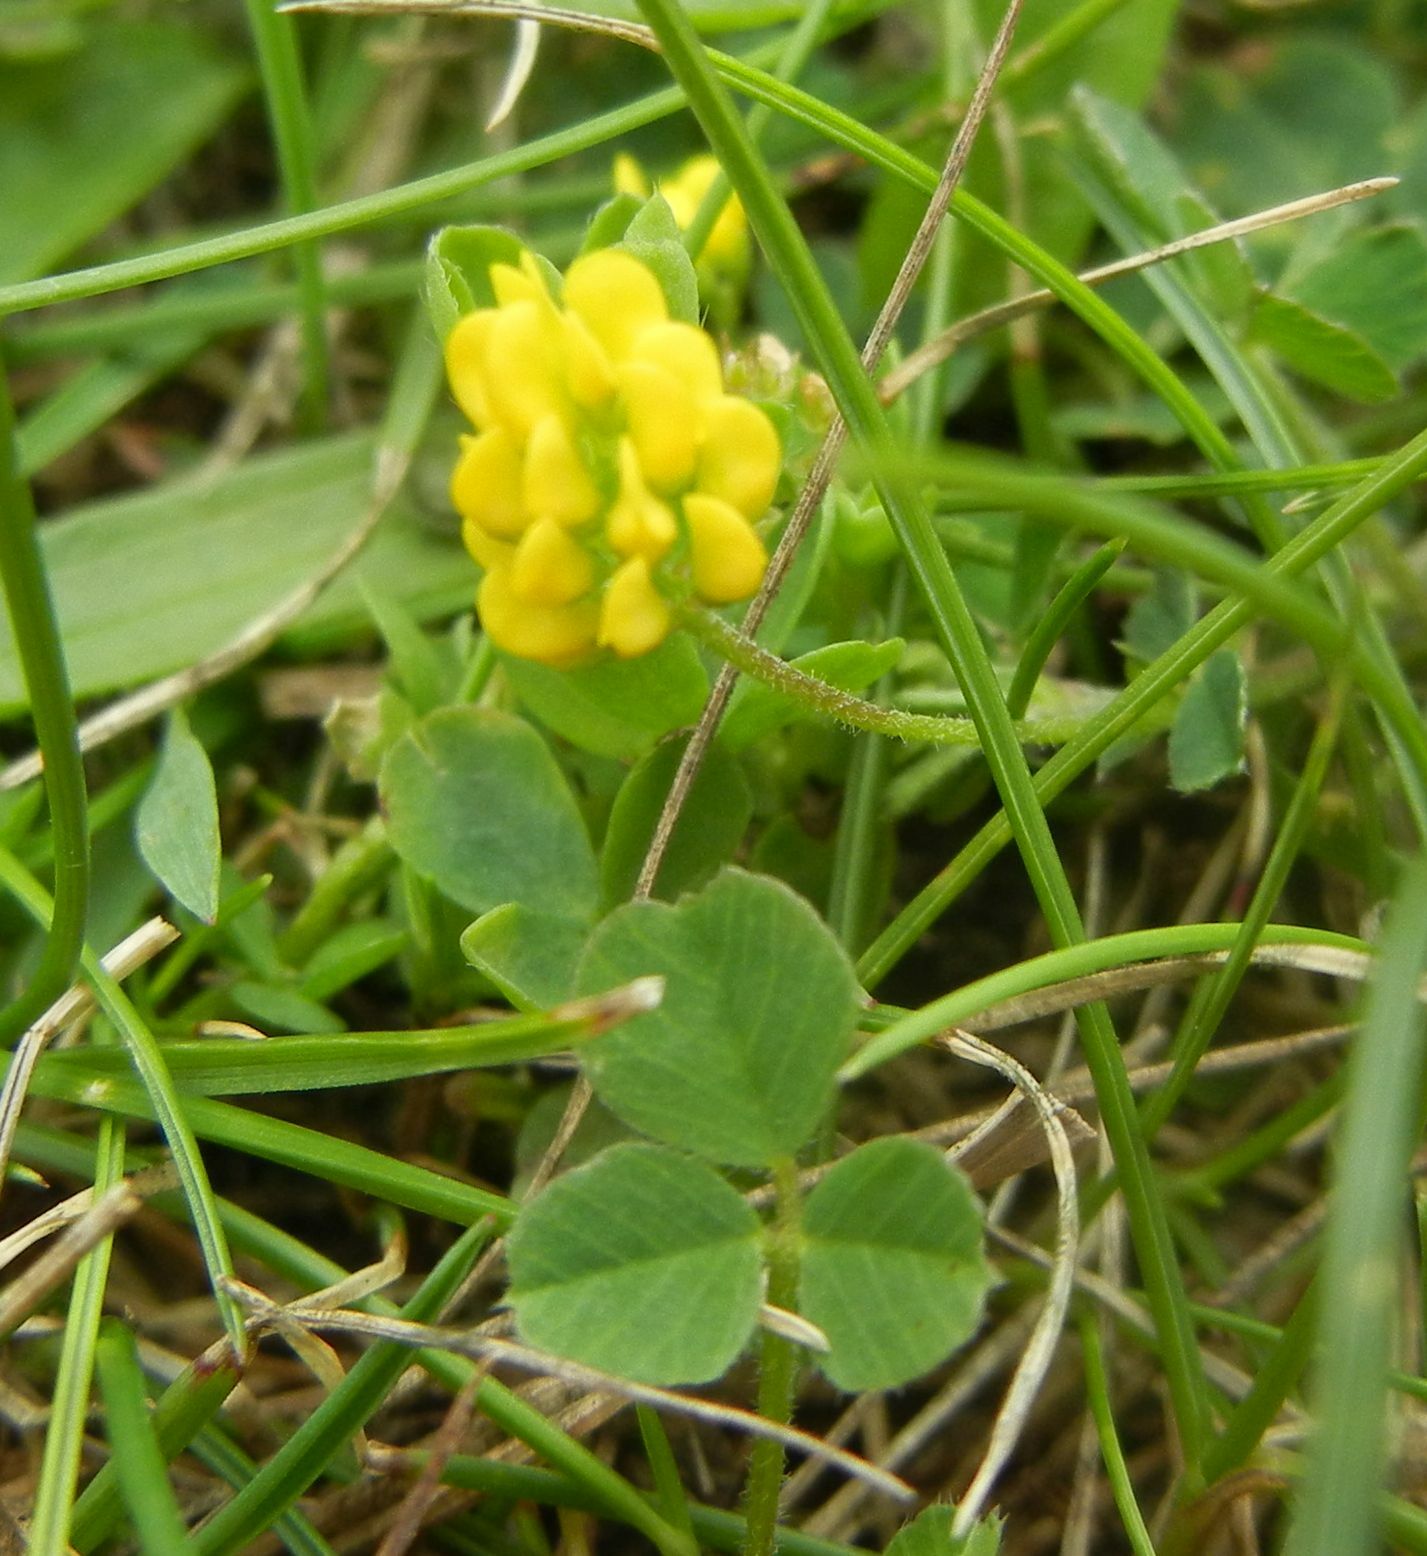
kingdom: Plantae
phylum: Tracheophyta
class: Magnoliopsida
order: Fabales
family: Fabaceae
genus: Medicago
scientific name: Medicago lupulina
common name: Black medick
